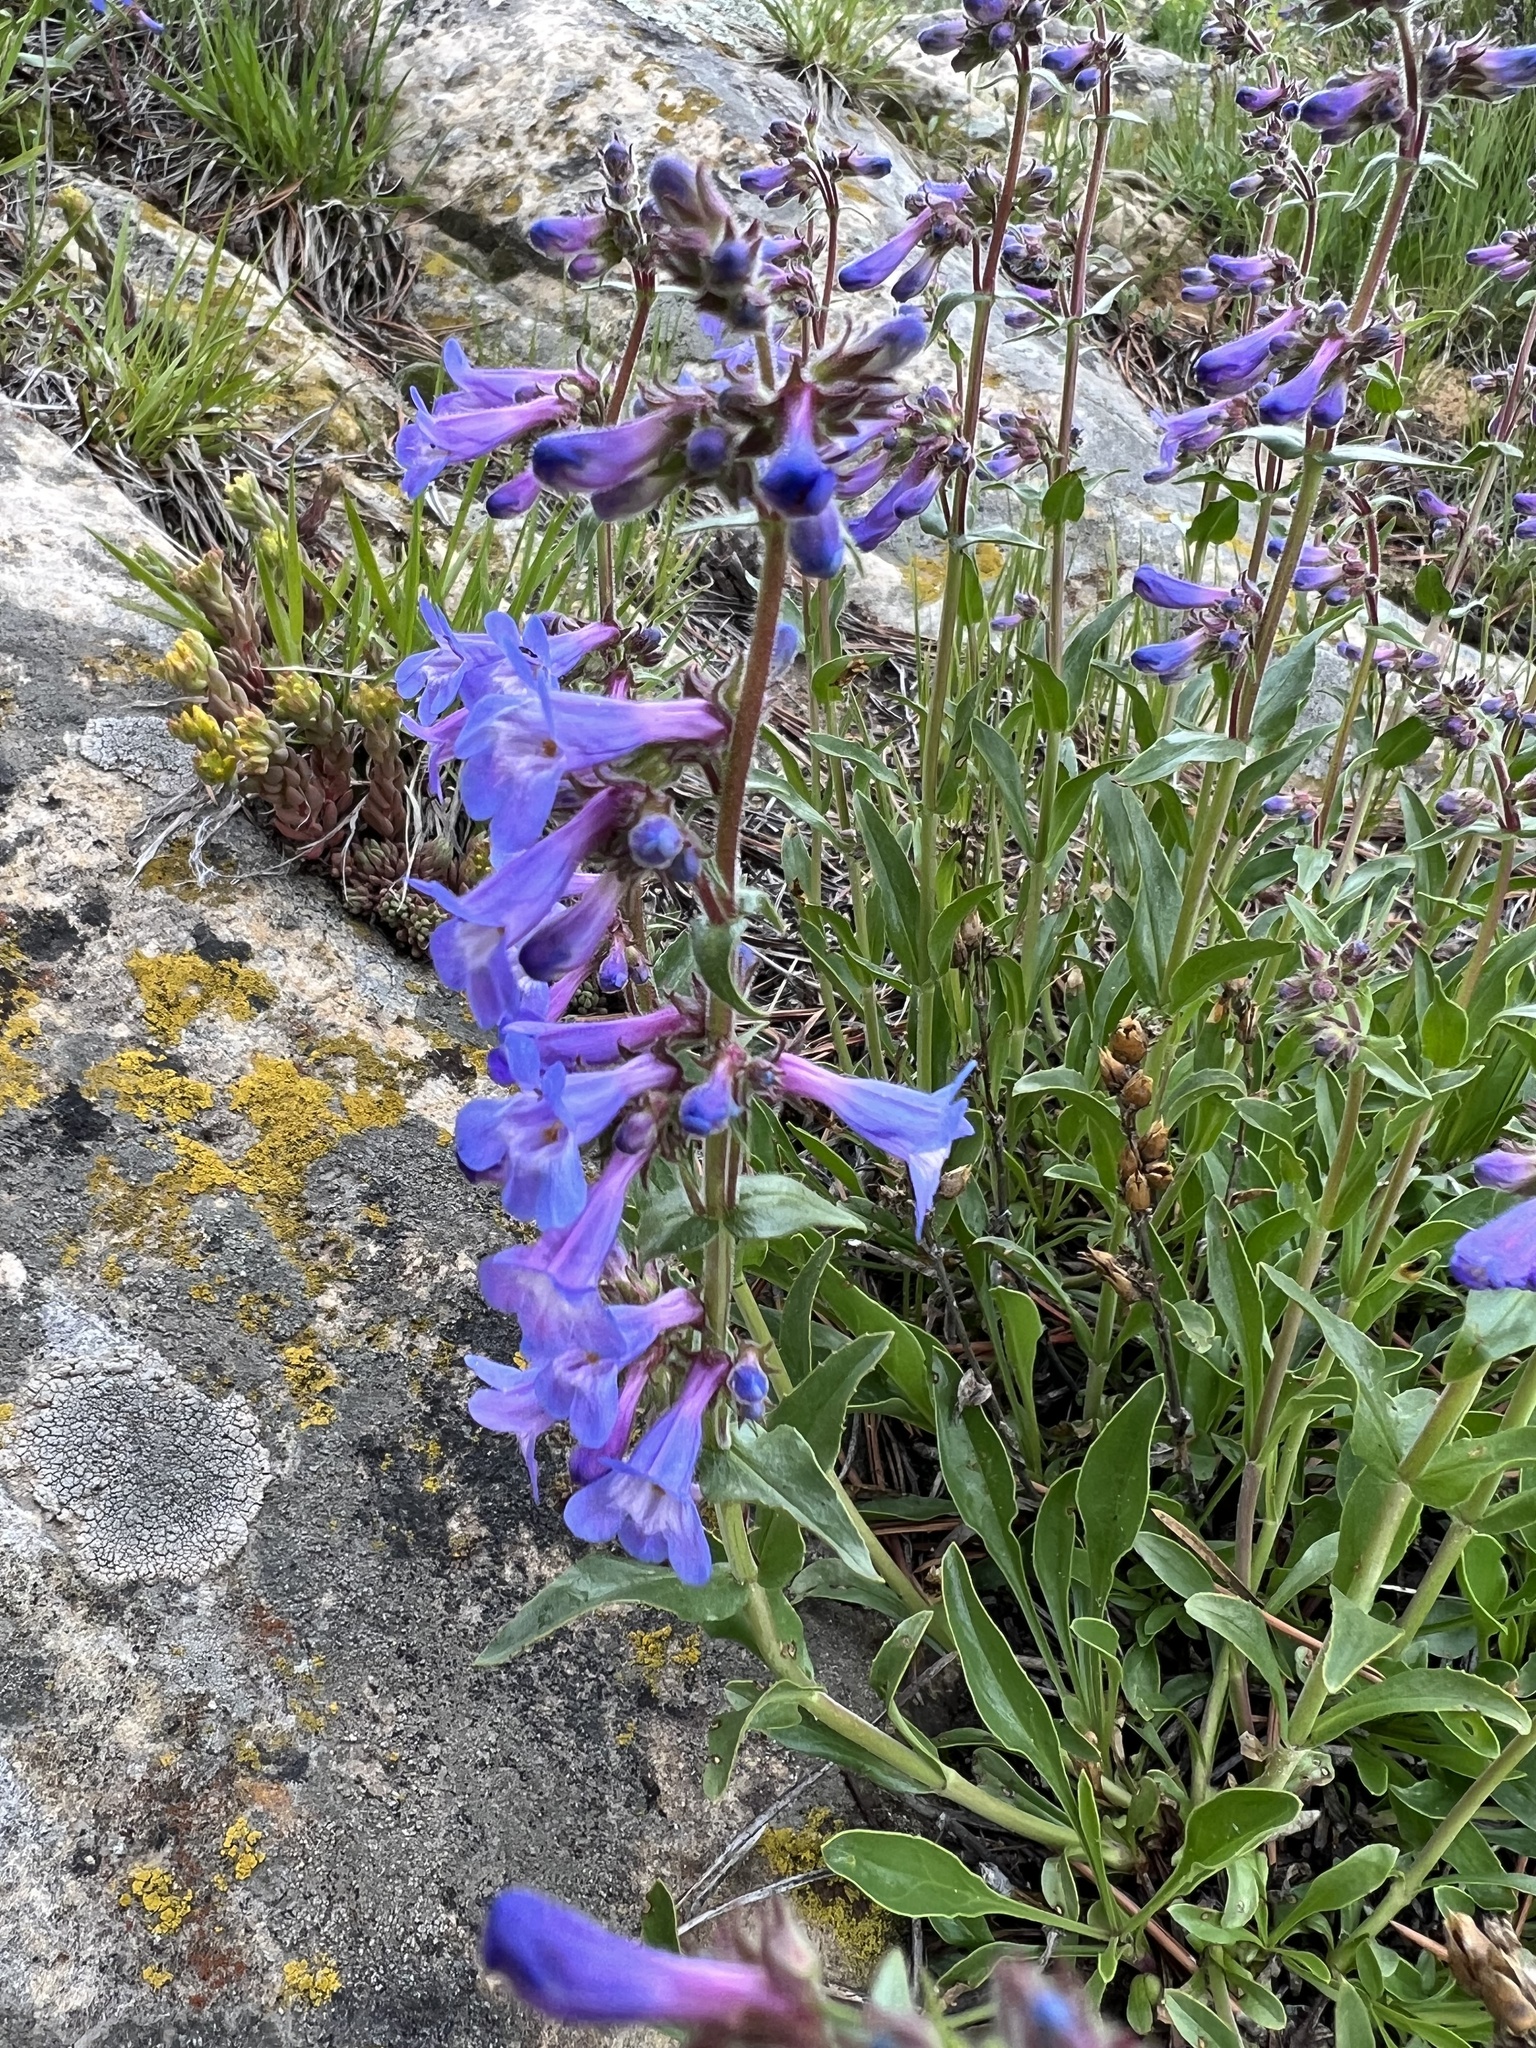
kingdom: Plantae
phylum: Tracheophyta
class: Magnoliopsida
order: Lamiales
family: Plantaginaceae
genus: Penstemon
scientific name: Penstemon virens
